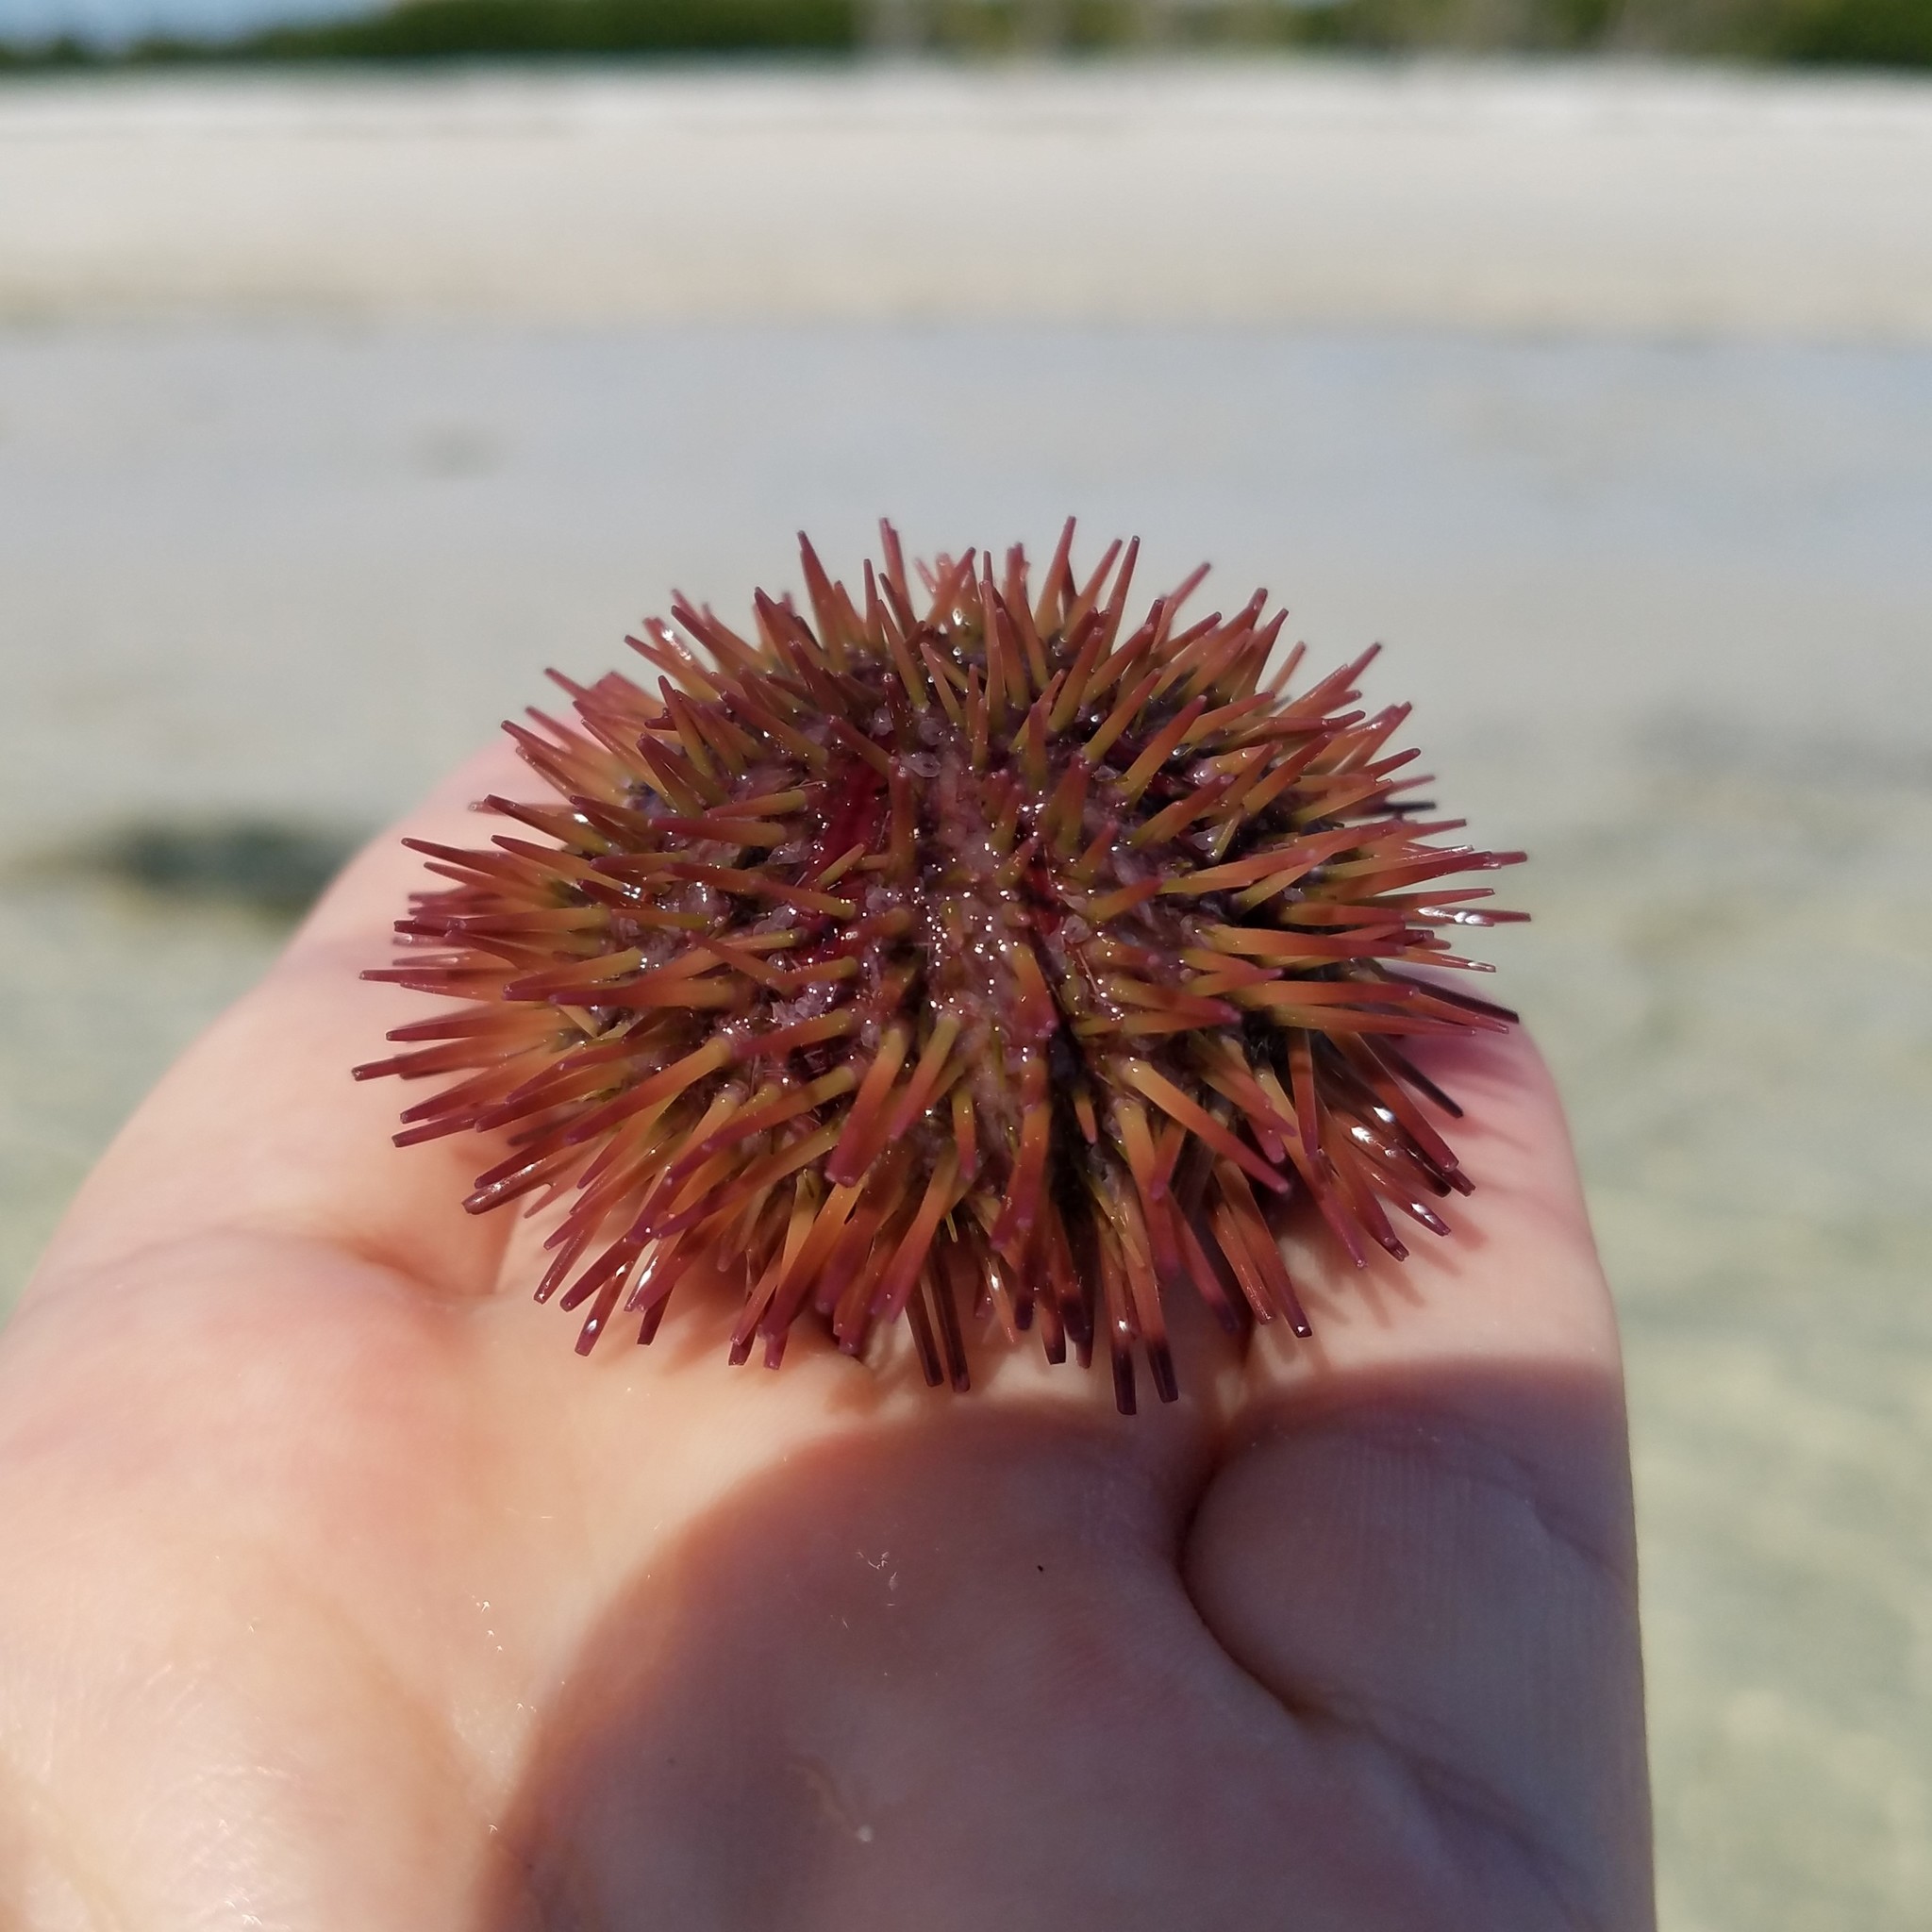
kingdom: Animalia
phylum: Echinodermata
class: Echinoidea
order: Camarodonta
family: Toxopneustidae
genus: Lytechinus
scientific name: Lytechinus variegatus
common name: Variegated urchin
